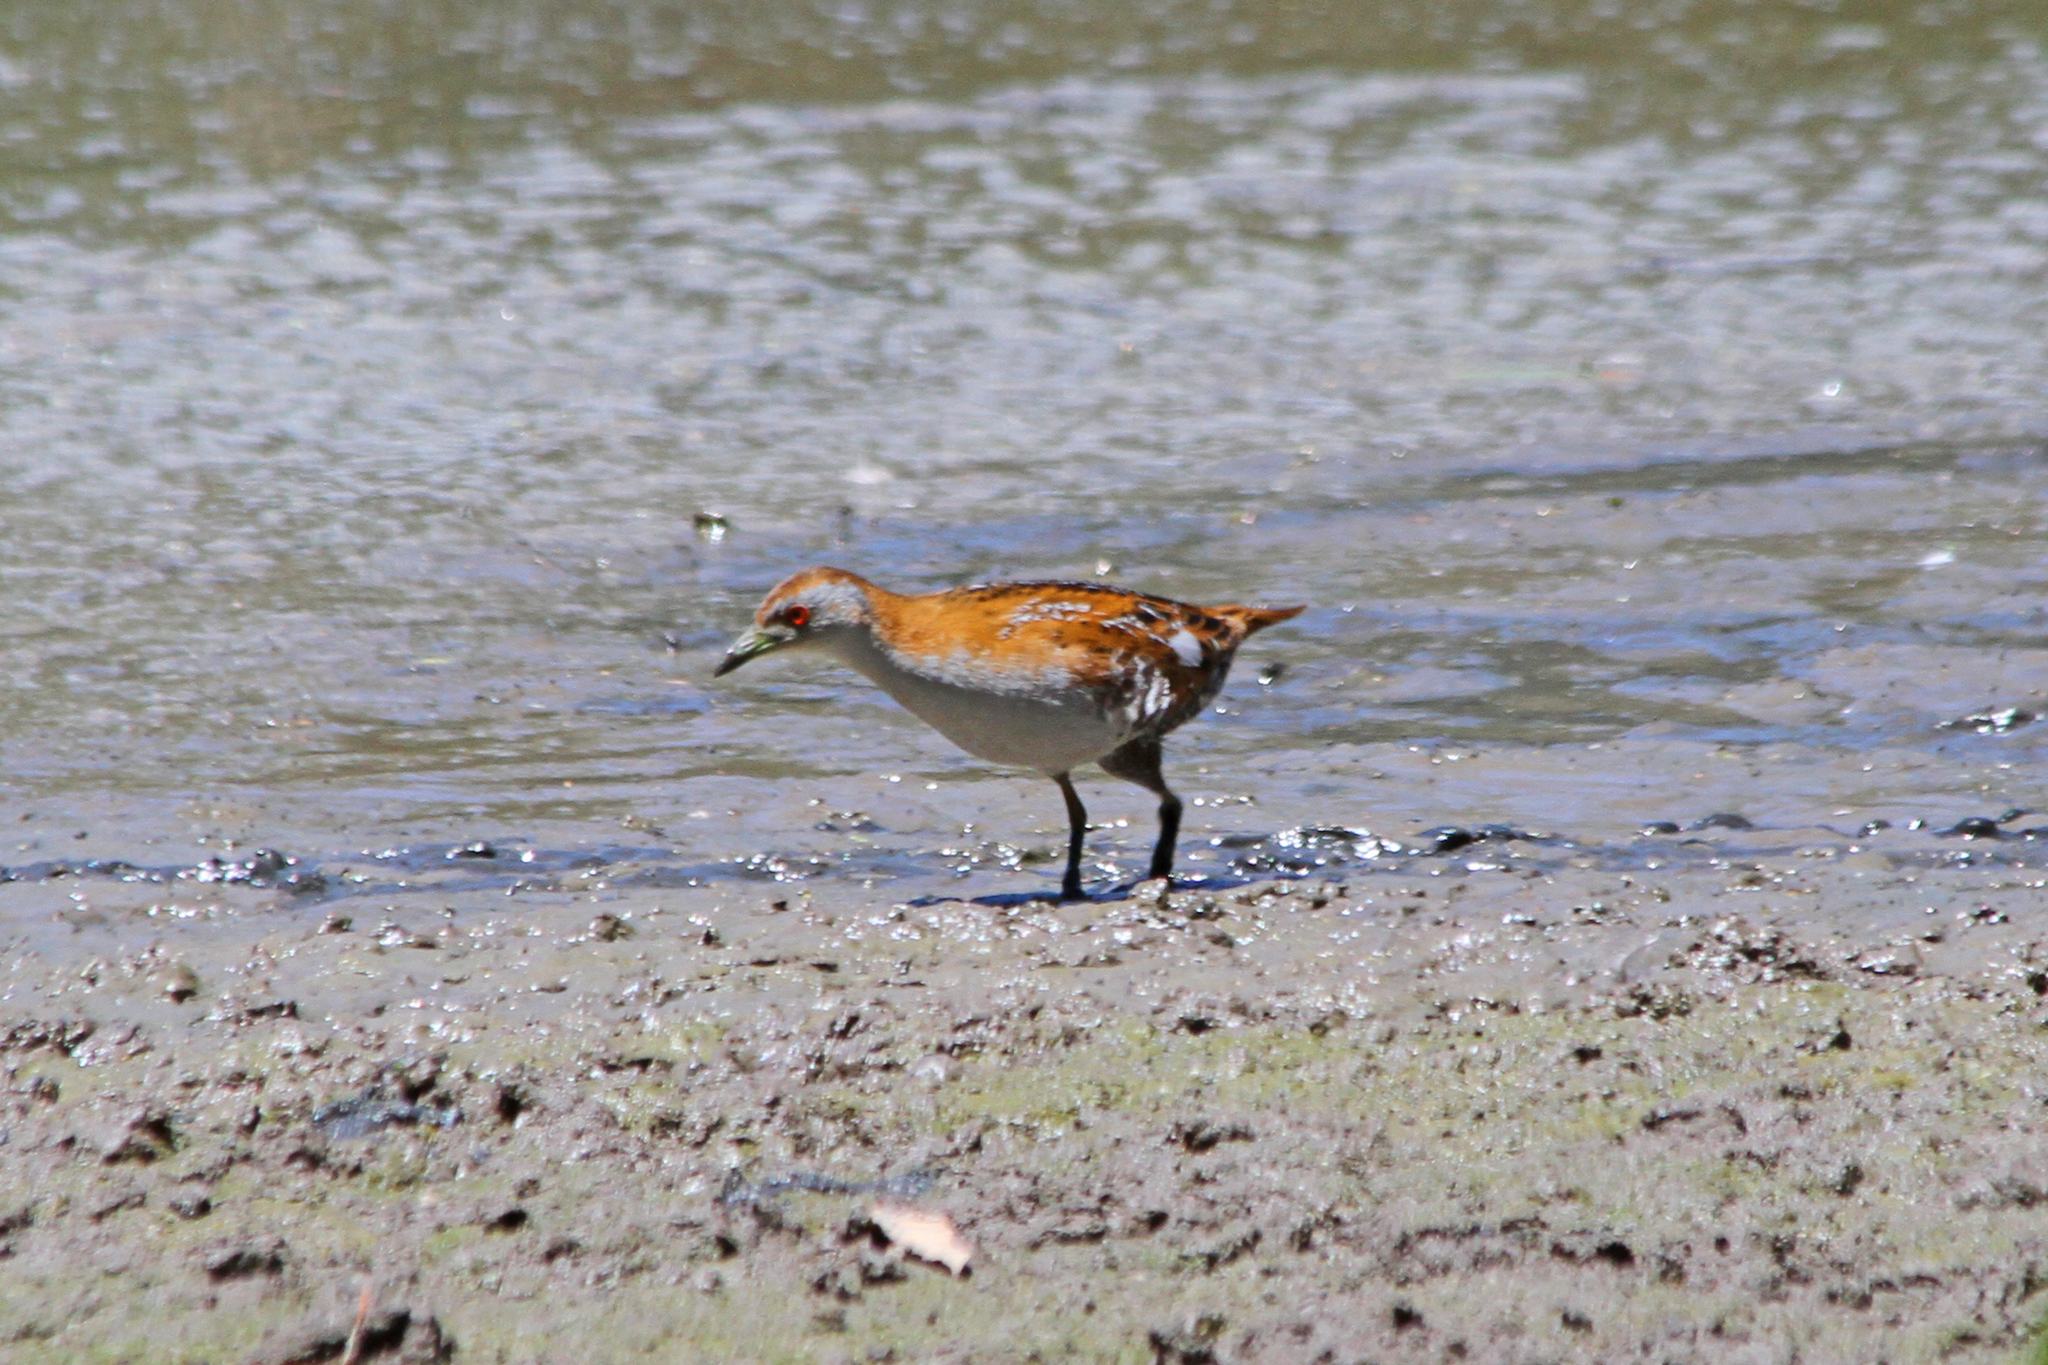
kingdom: Animalia
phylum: Chordata
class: Aves
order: Gruiformes
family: Rallidae
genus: Porzana
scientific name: Porzana pusilla
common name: Baillon's crake
